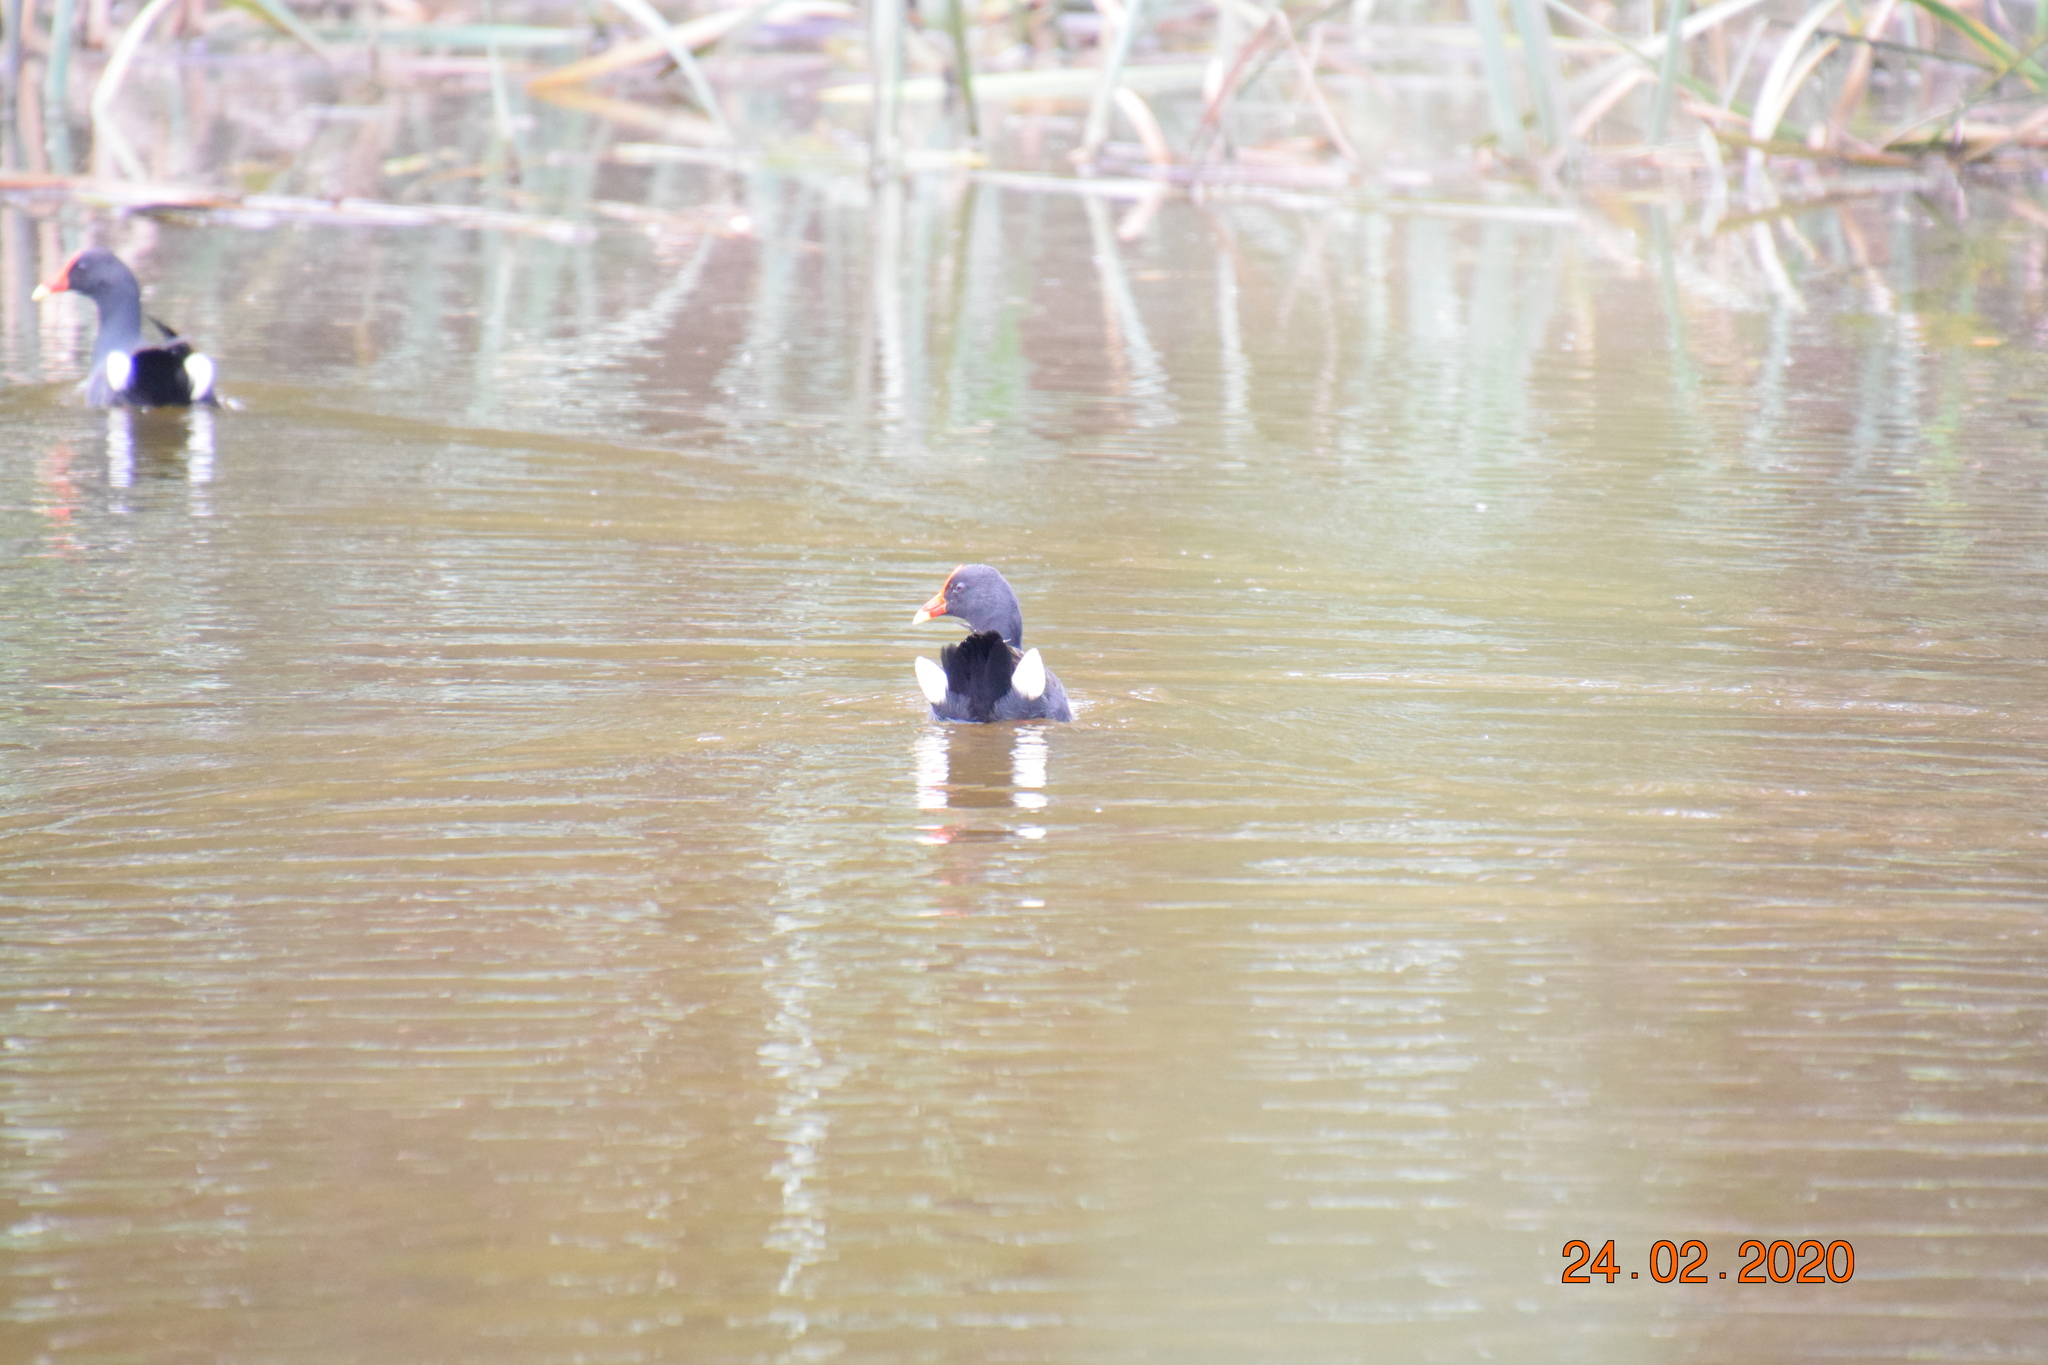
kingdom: Animalia
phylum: Chordata
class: Aves
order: Gruiformes
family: Rallidae
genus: Gallinula
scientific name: Gallinula tenebrosa
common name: Dusky moorhen
